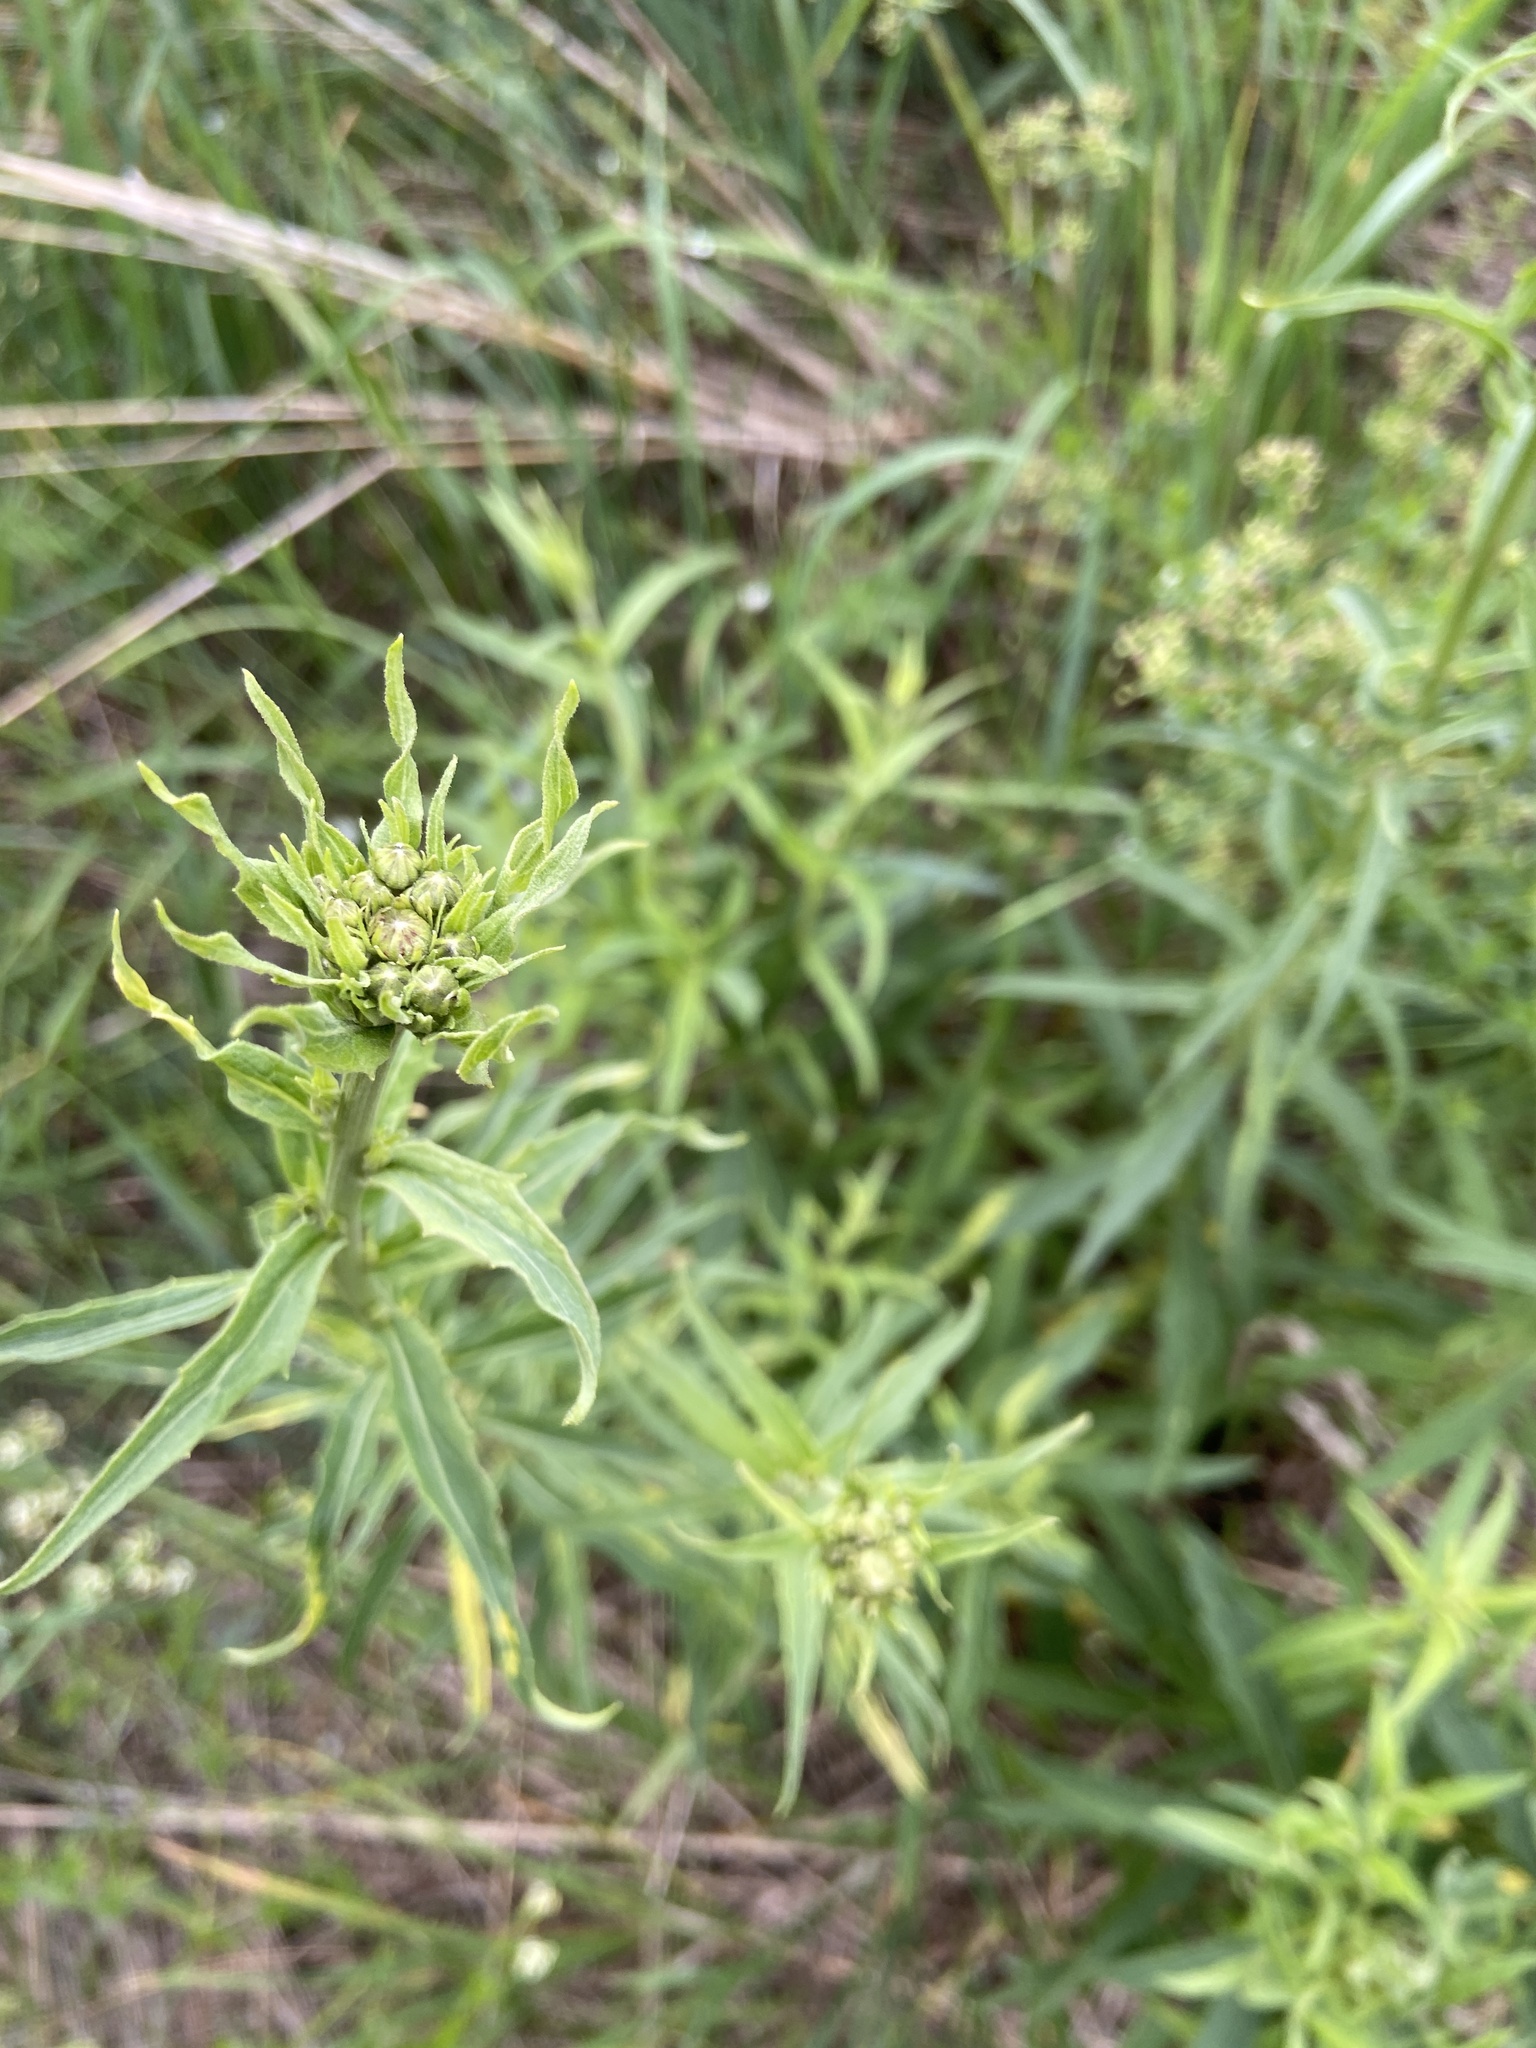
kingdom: Plantae
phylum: Tracheophyta
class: Magnoliopsida
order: Asterales
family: Asteraceae
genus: Hieracium
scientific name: Hieracium umbellatum
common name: Northern hawkweed
